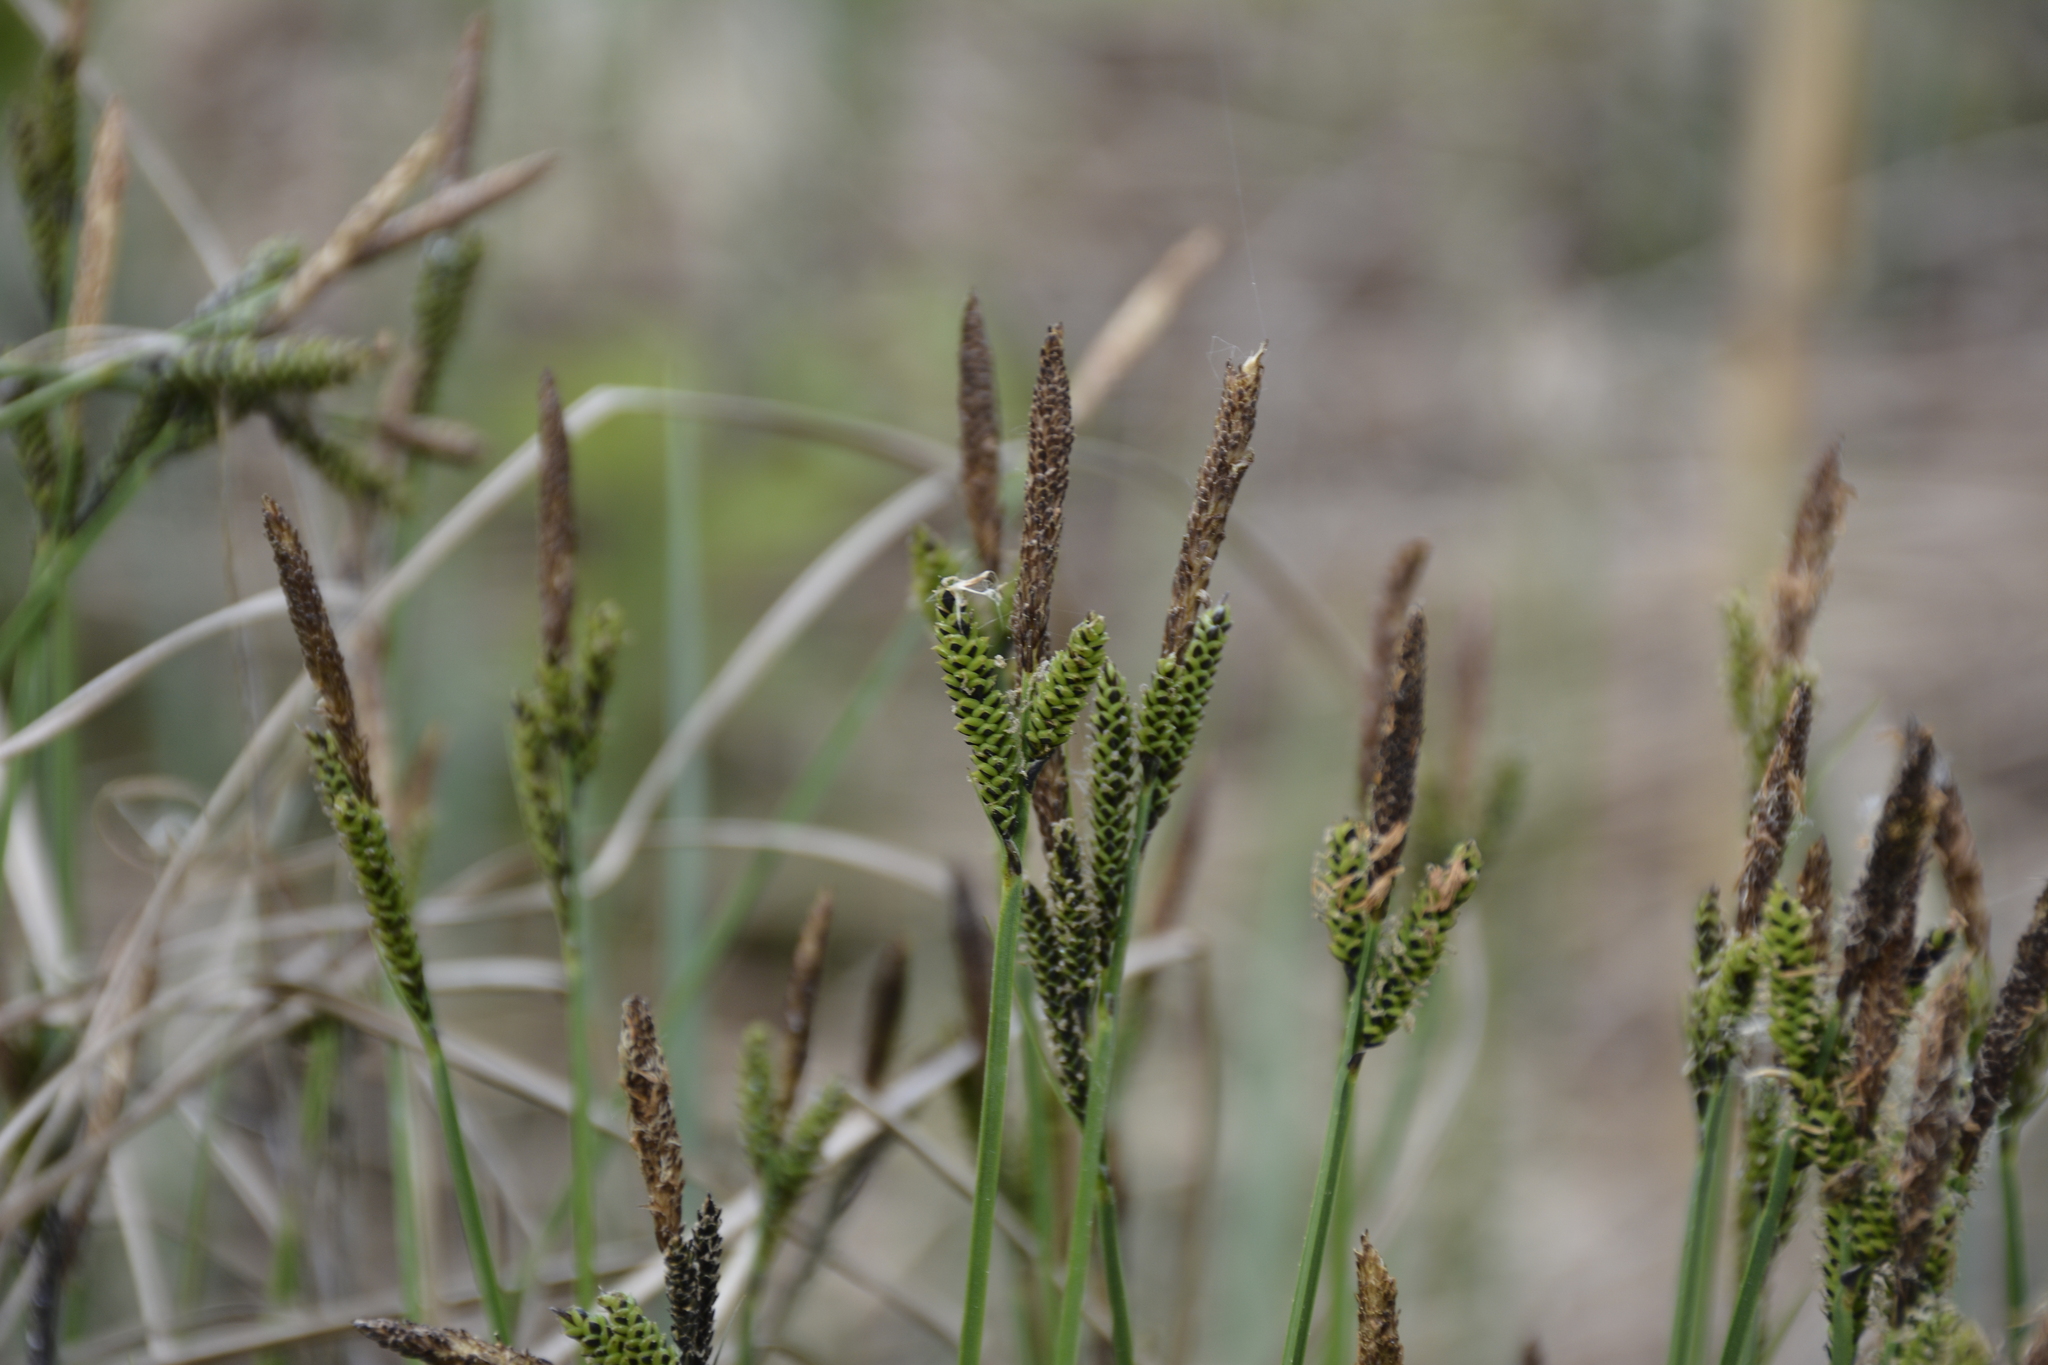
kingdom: Plantae
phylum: Tracheophyta
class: Liliopsida
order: Poales
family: Cyperaceae
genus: Carex
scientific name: Carex cespitosa
